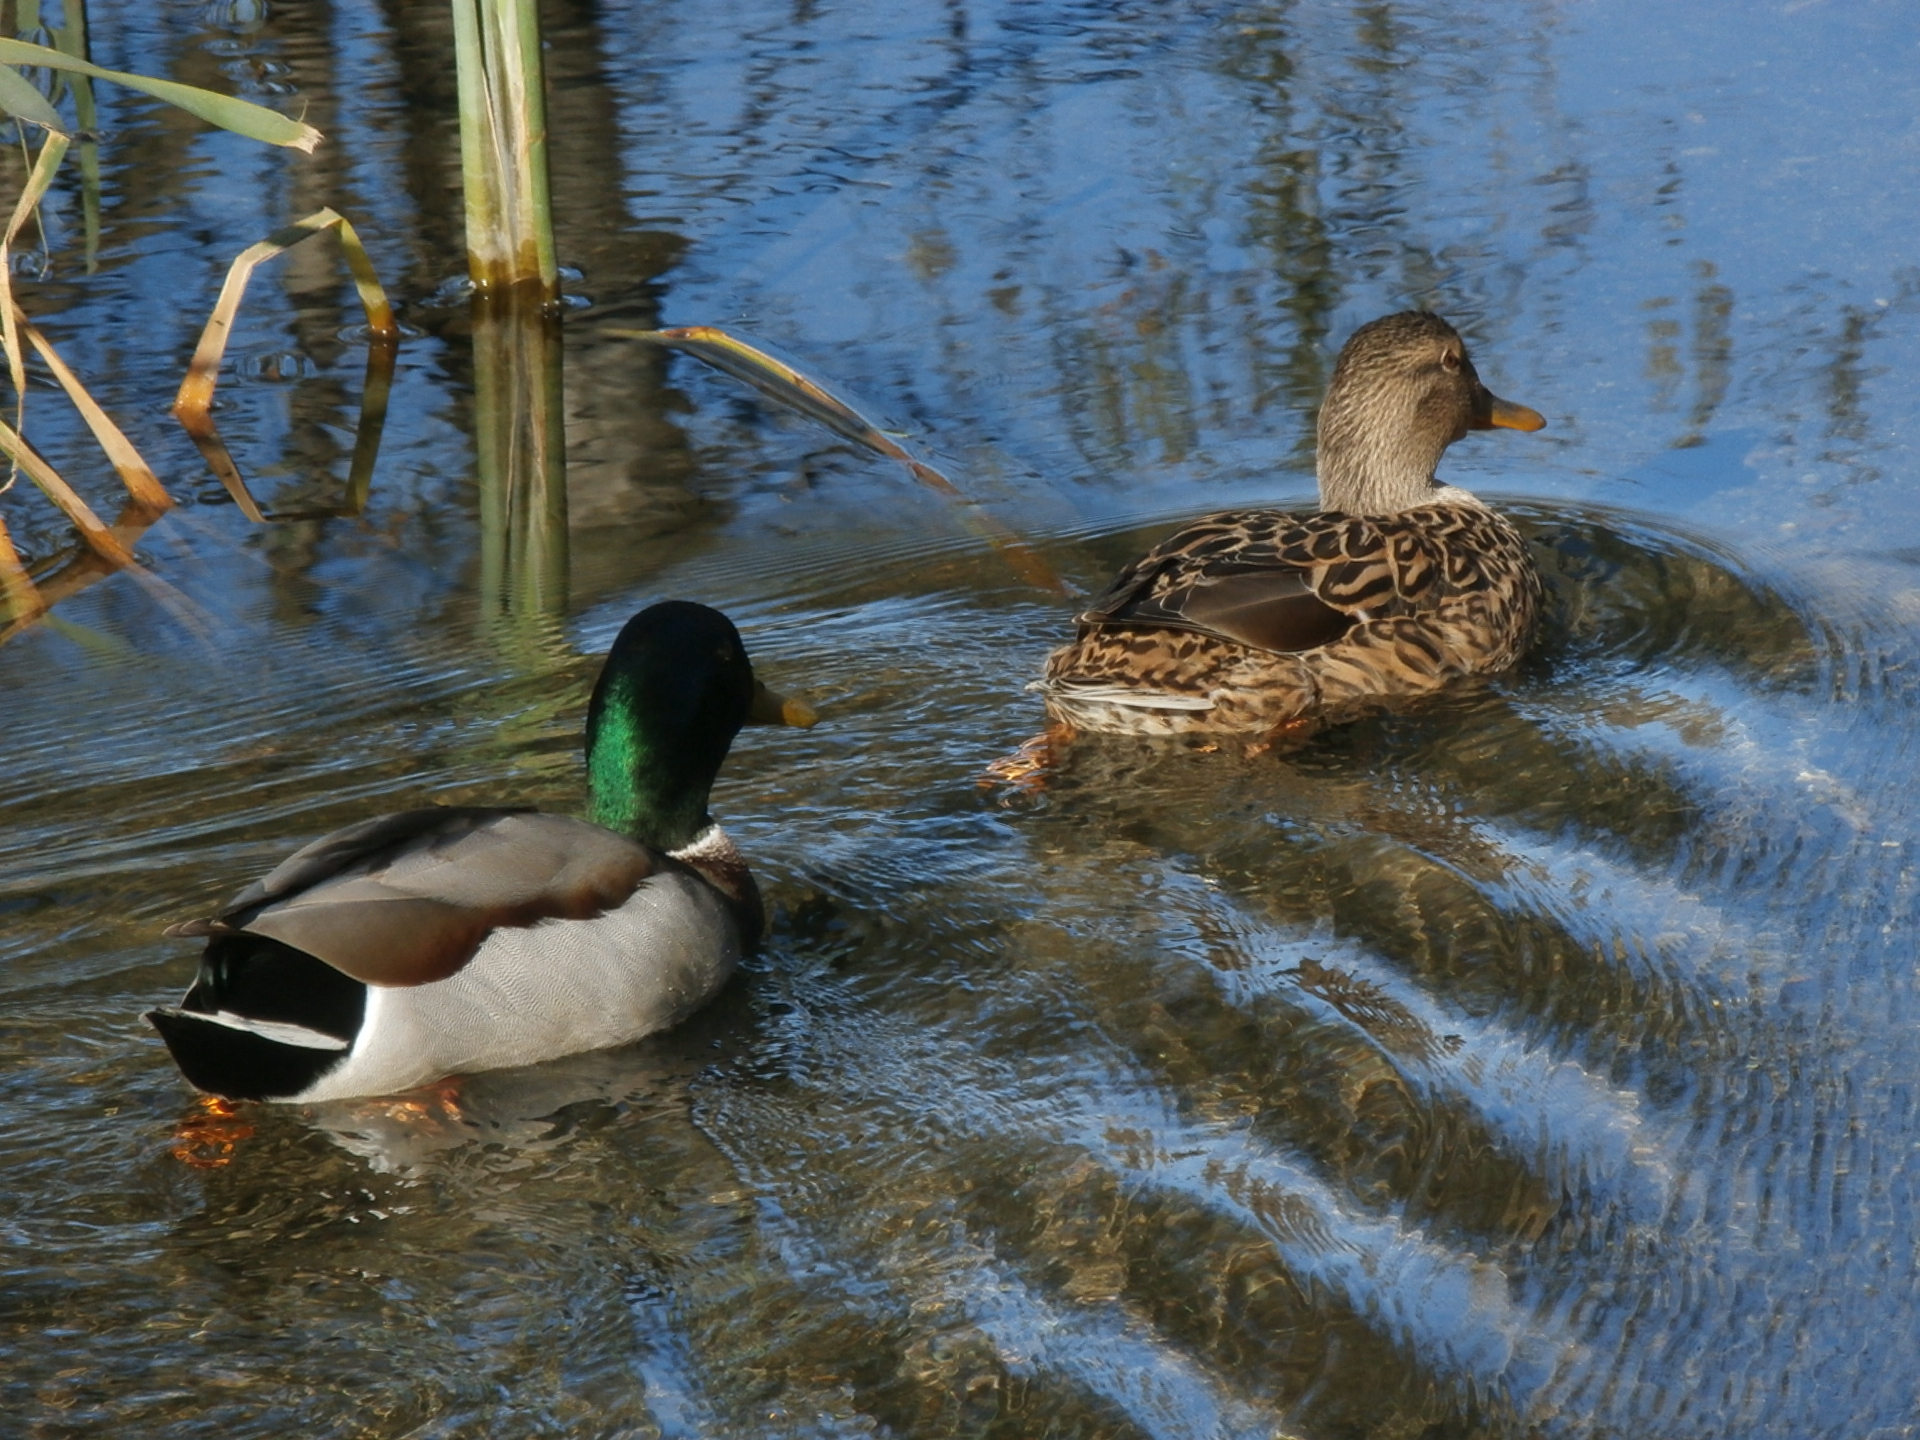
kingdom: Animalia
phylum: Chordata
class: Aves
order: Anseriformes
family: Anatidae
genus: Anas
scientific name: Anas platyrhynchos
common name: Mallard
